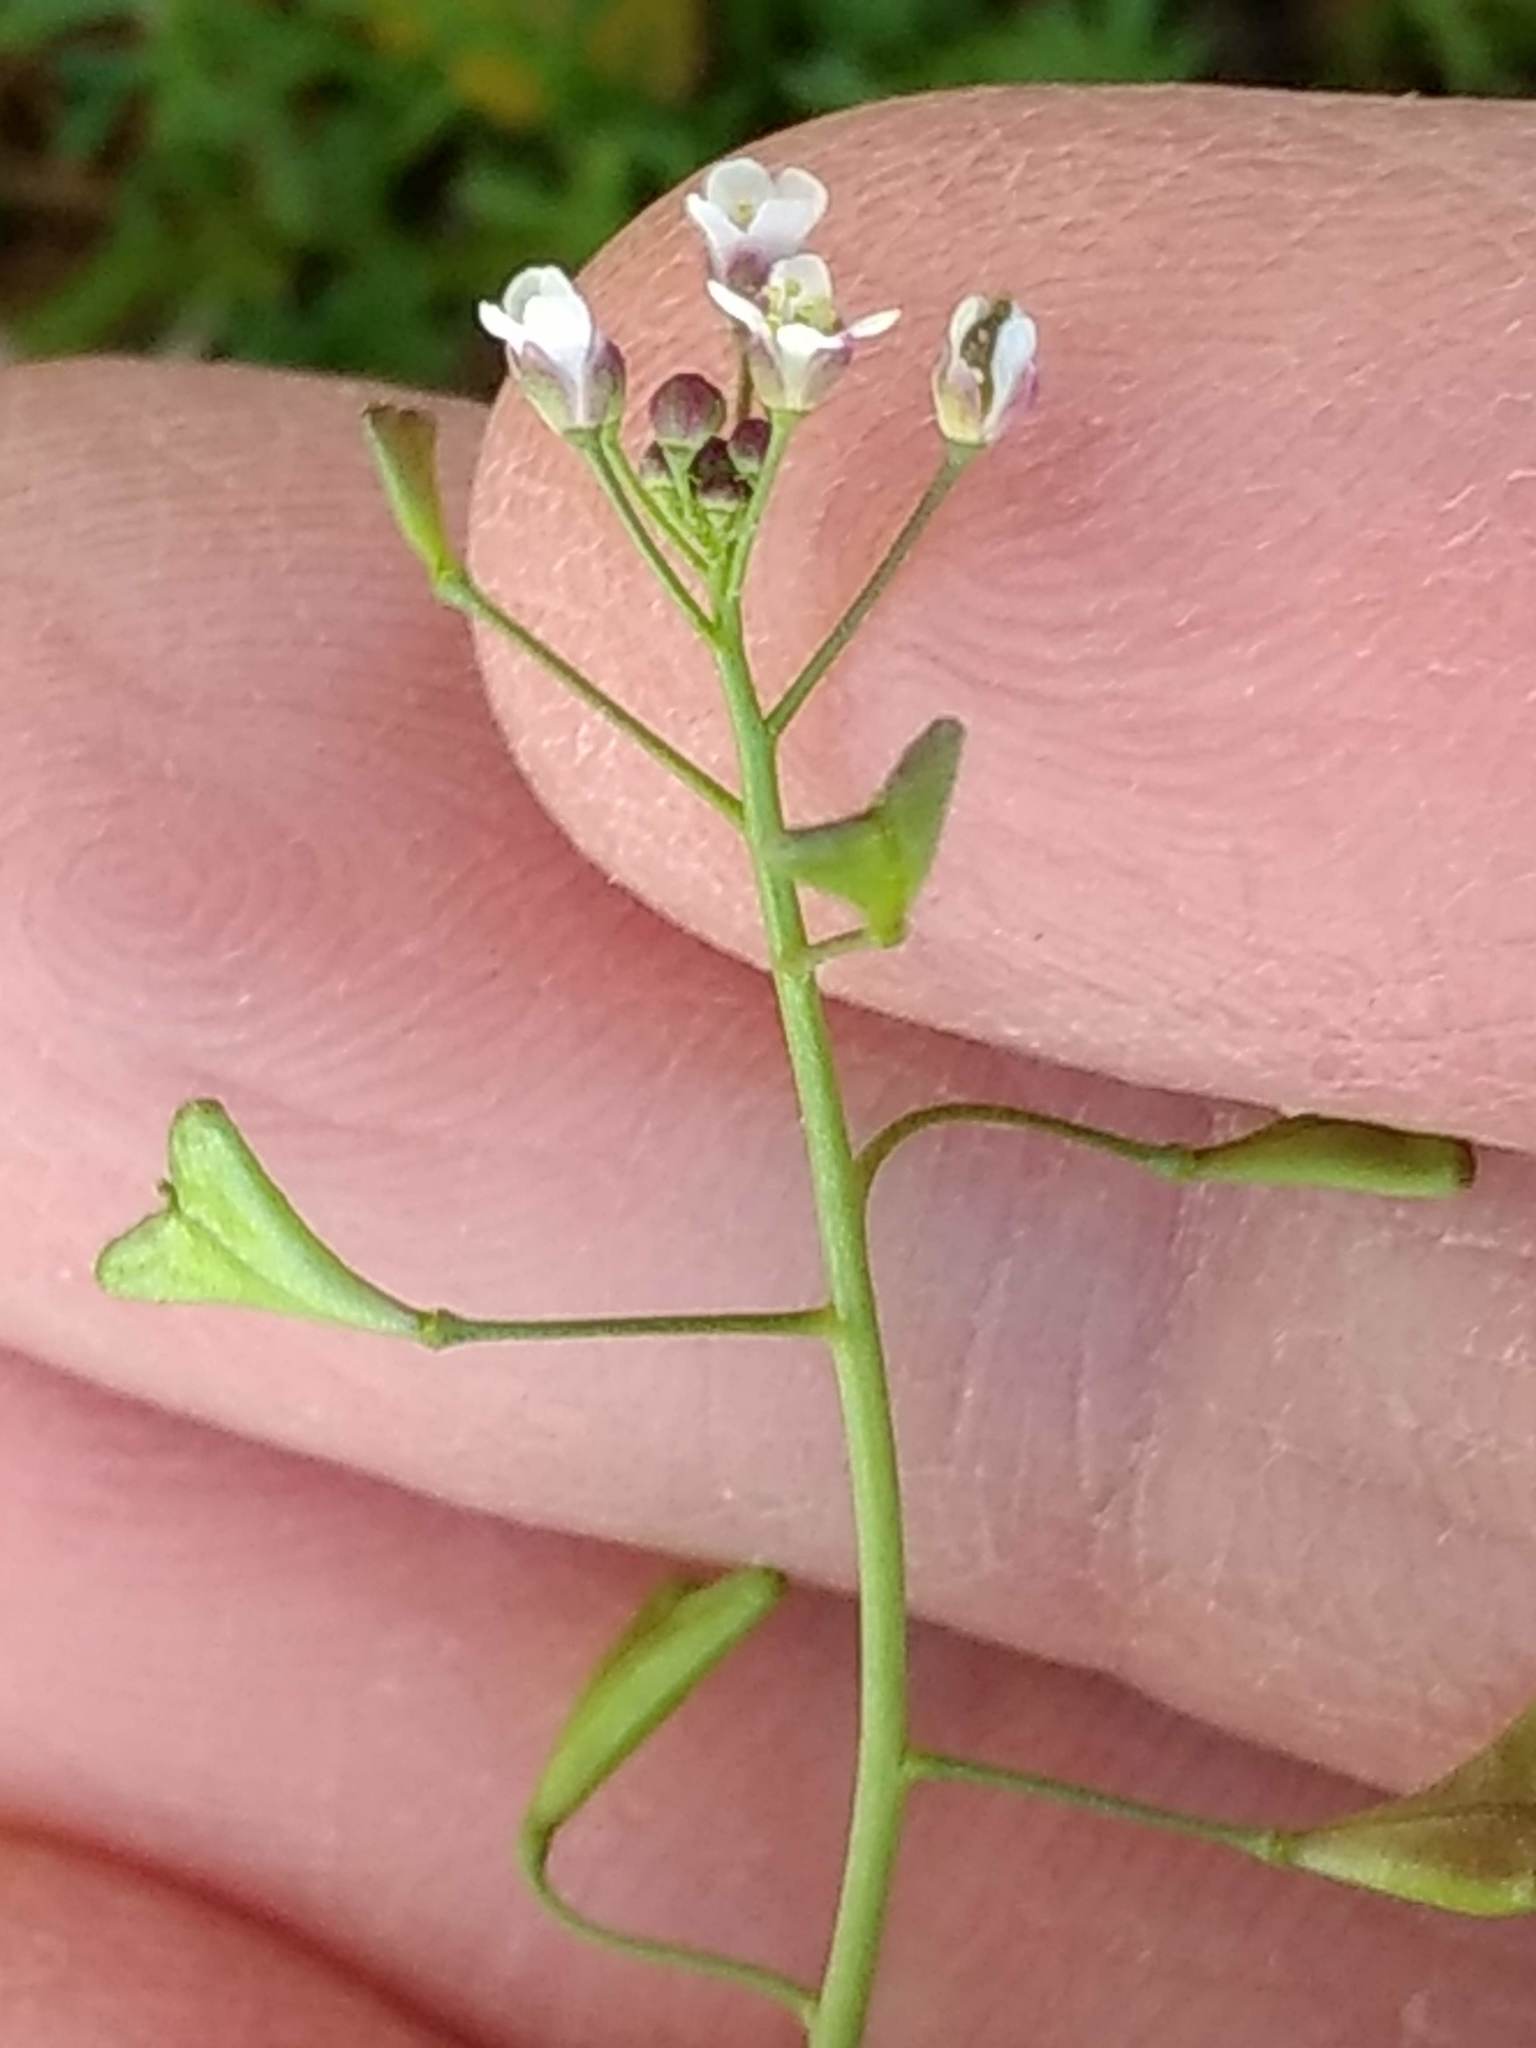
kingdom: Plantae
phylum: Tracheophyta
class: Magnoliopsida
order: Brassicales
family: Brassicaceae
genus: Capsella
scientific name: Capsella bursa-pastoris
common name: Shepherd's purse
